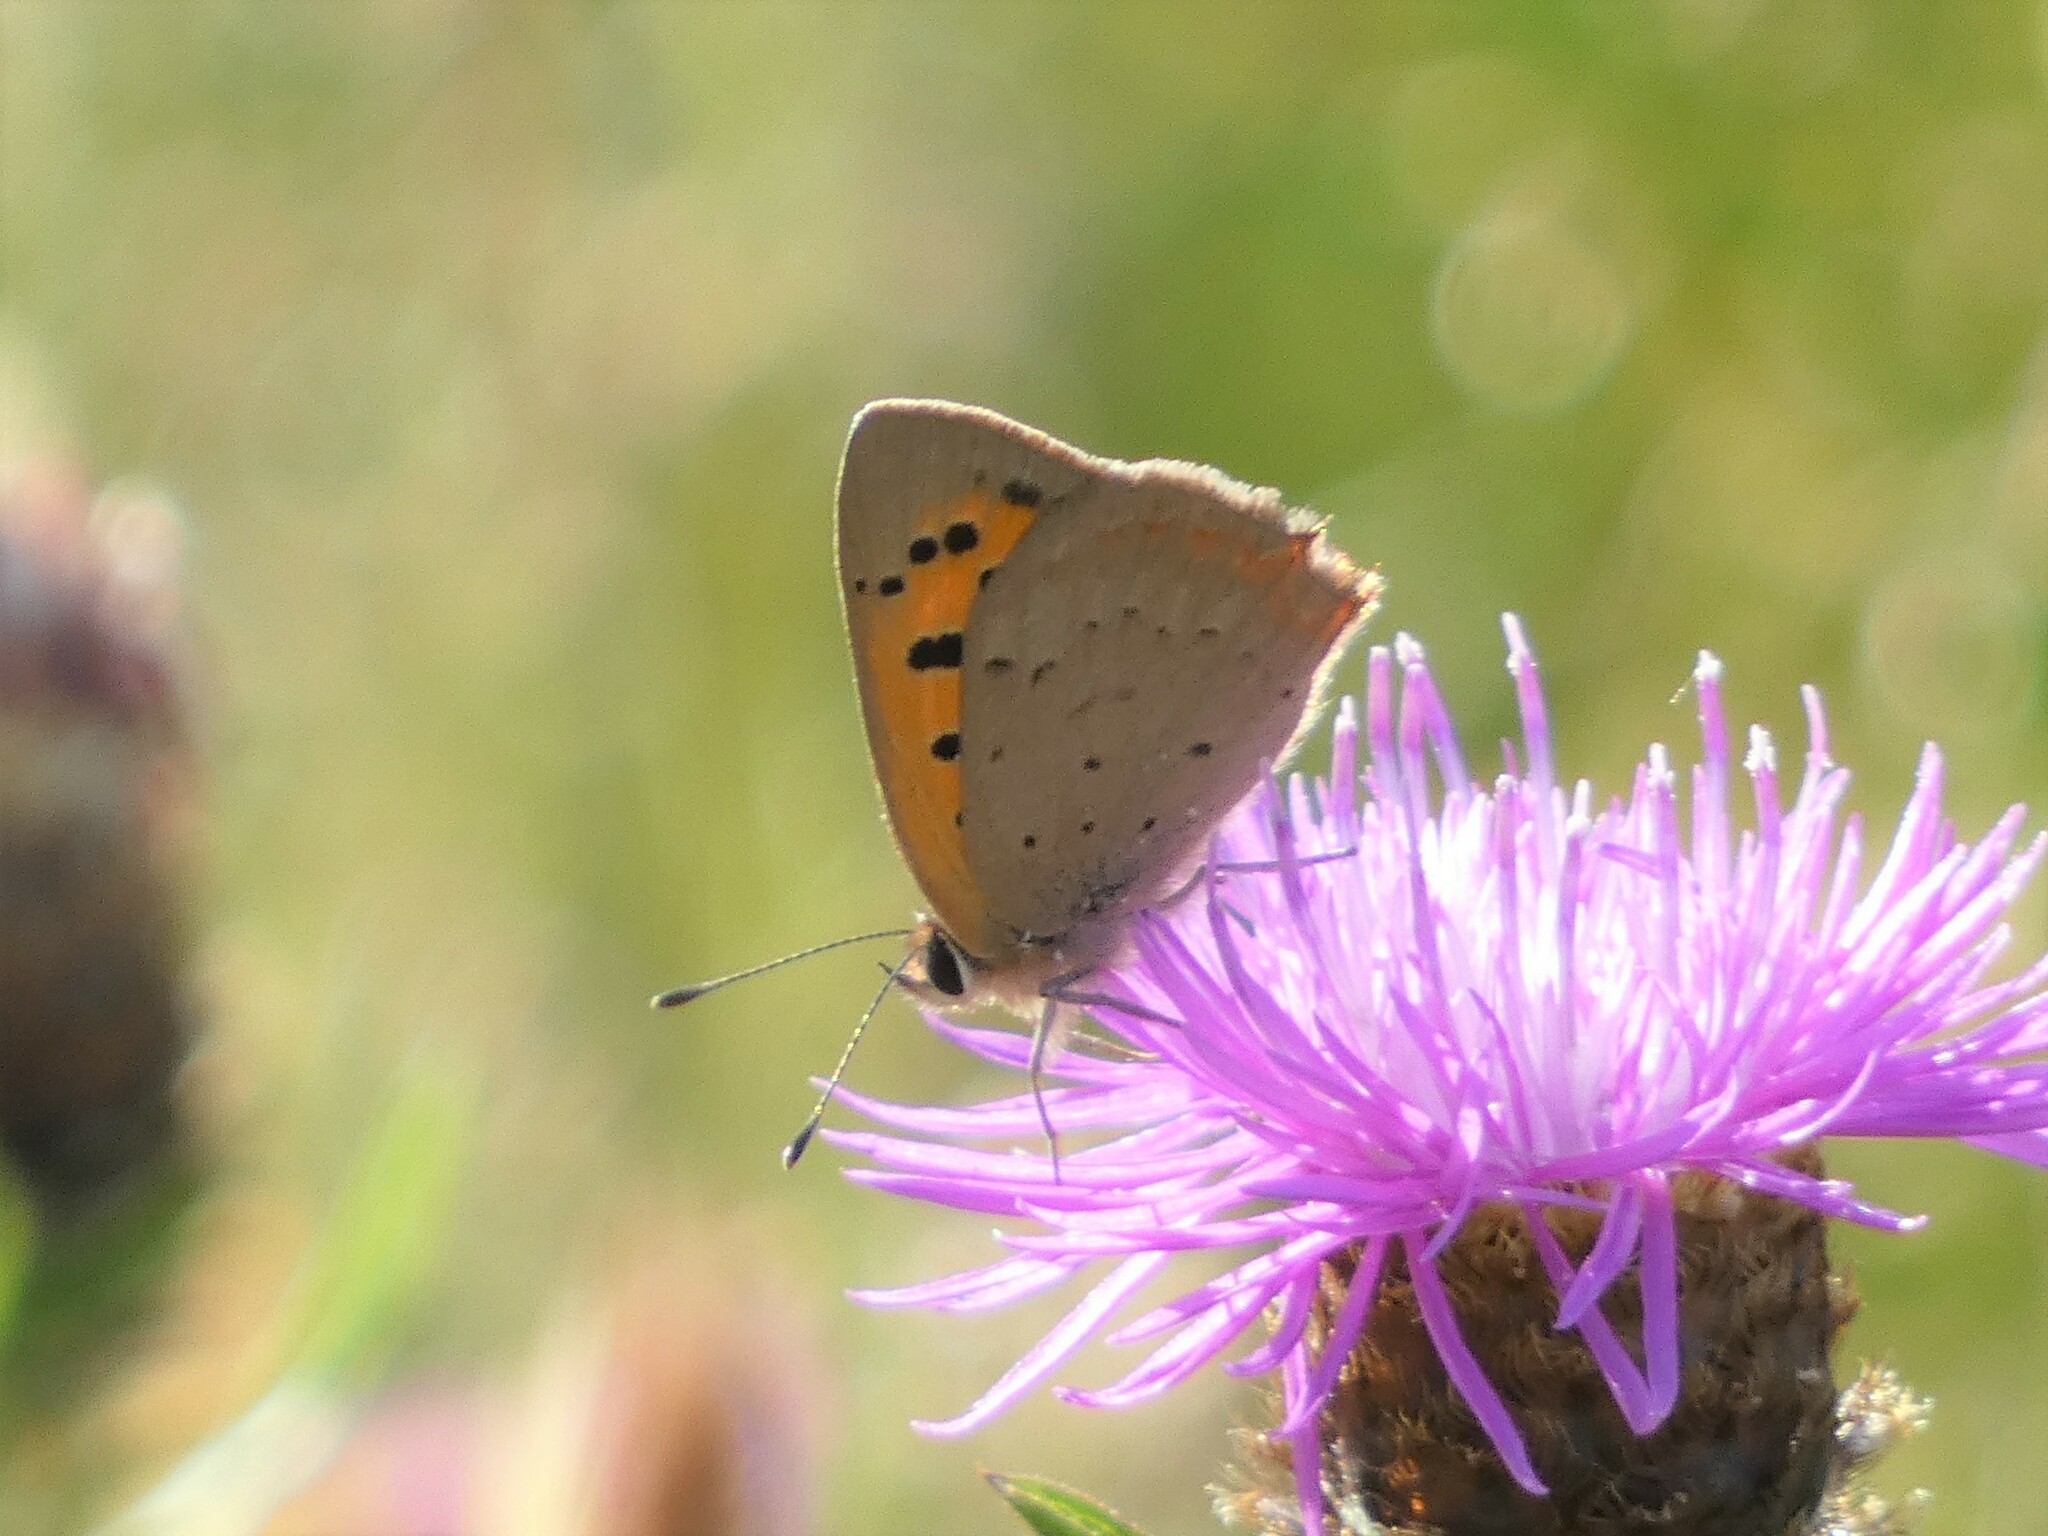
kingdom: Animalia
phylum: Arthropoda
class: Insecta
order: Lepidoptera
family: Lycaenidae
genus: Lycaena
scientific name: Lycaena phlaeas
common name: Small copper
